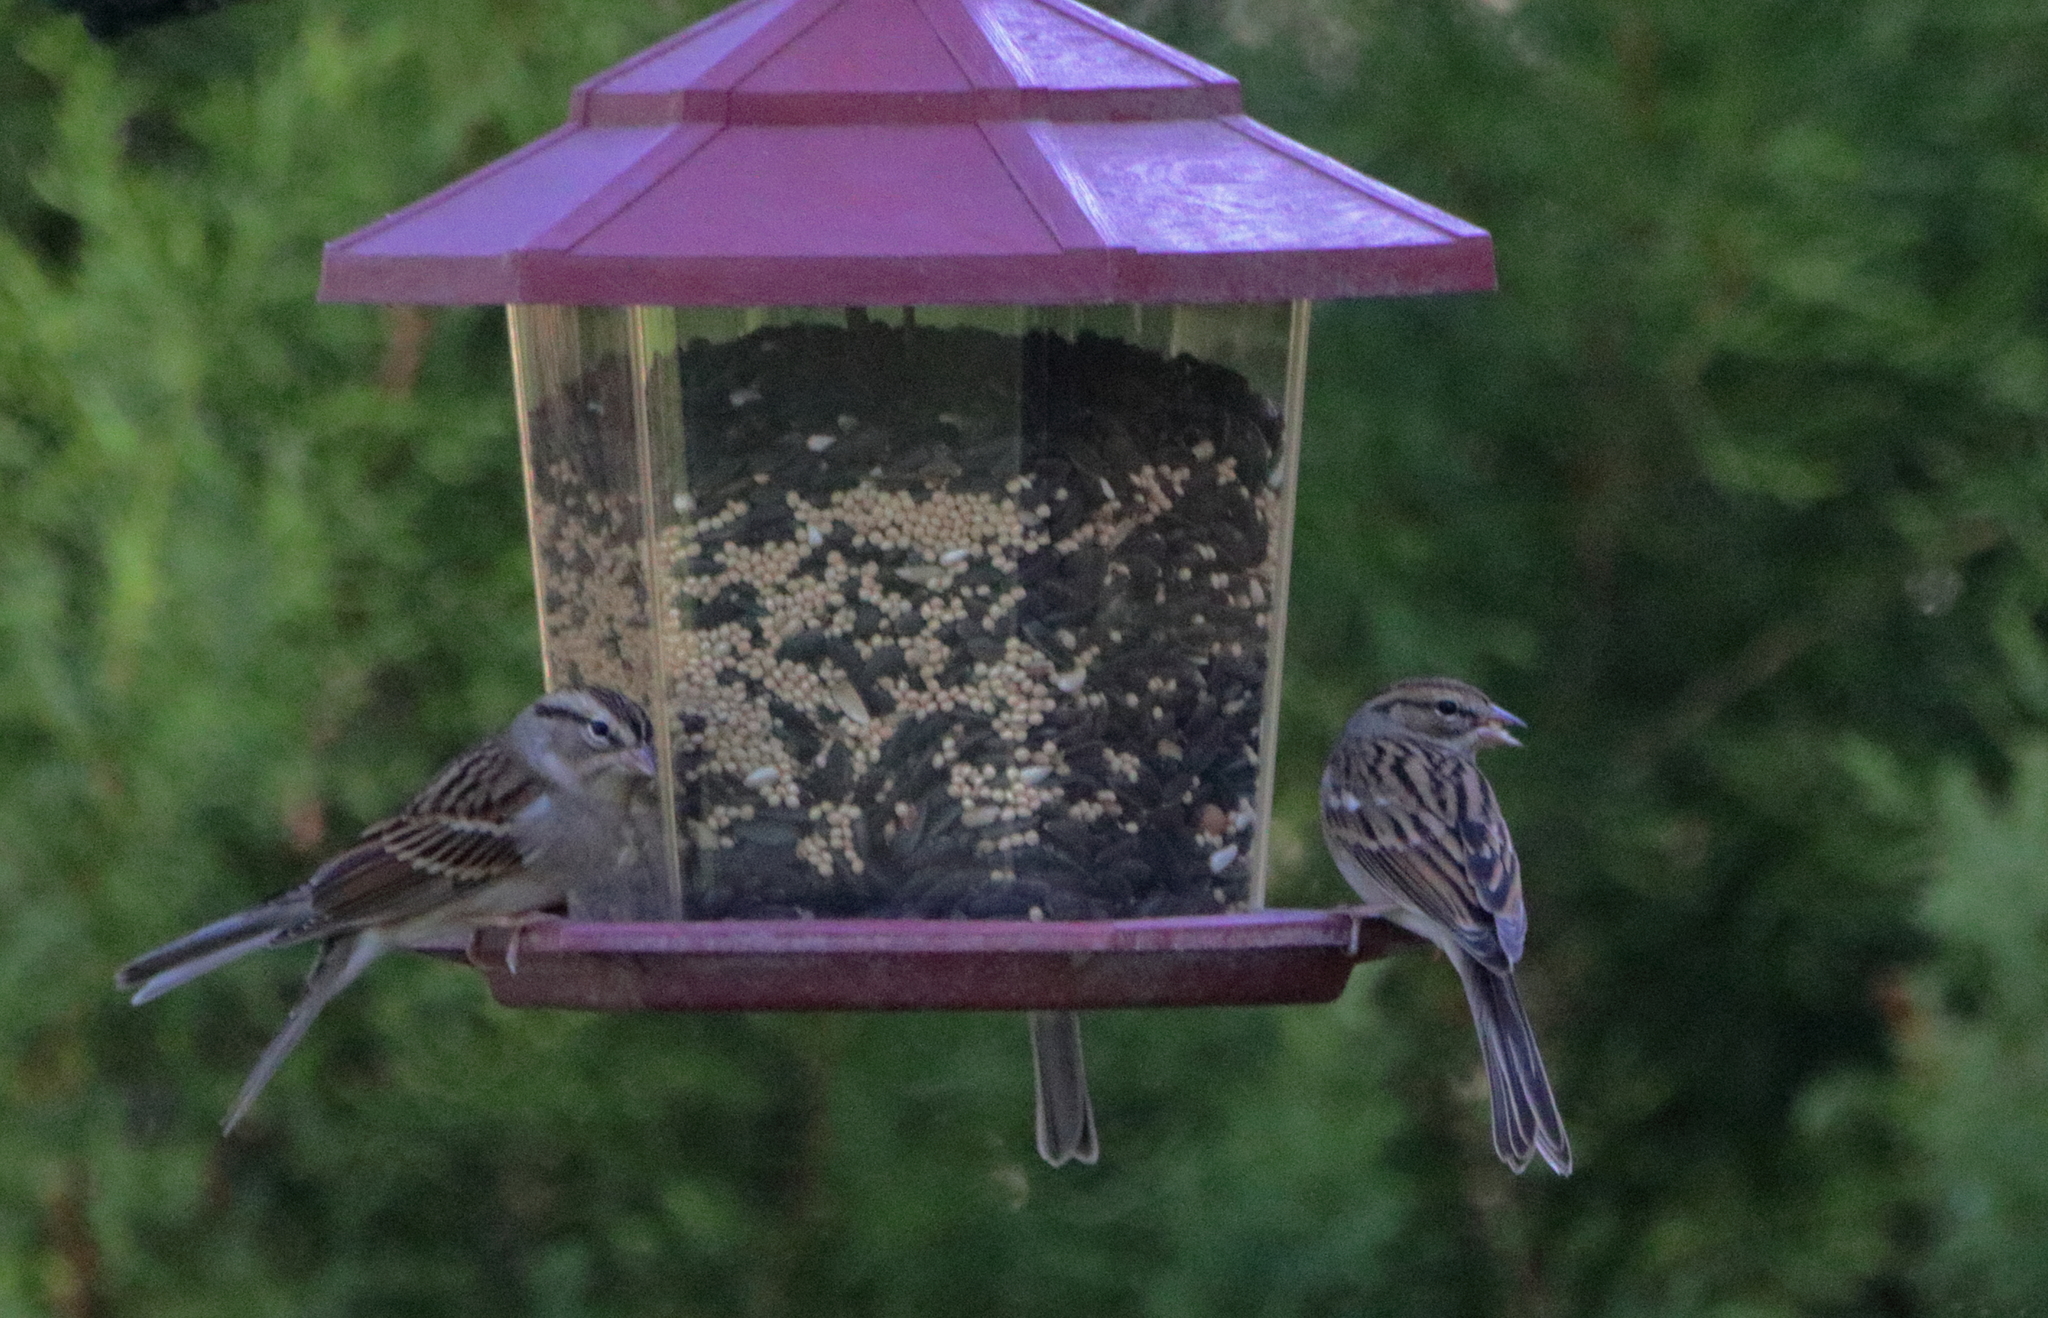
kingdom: Animalia
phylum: Chordata
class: Aves
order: Passeriformes
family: Passerellidae
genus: Spizella
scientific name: Spizella passerina
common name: Chipping sparrow
